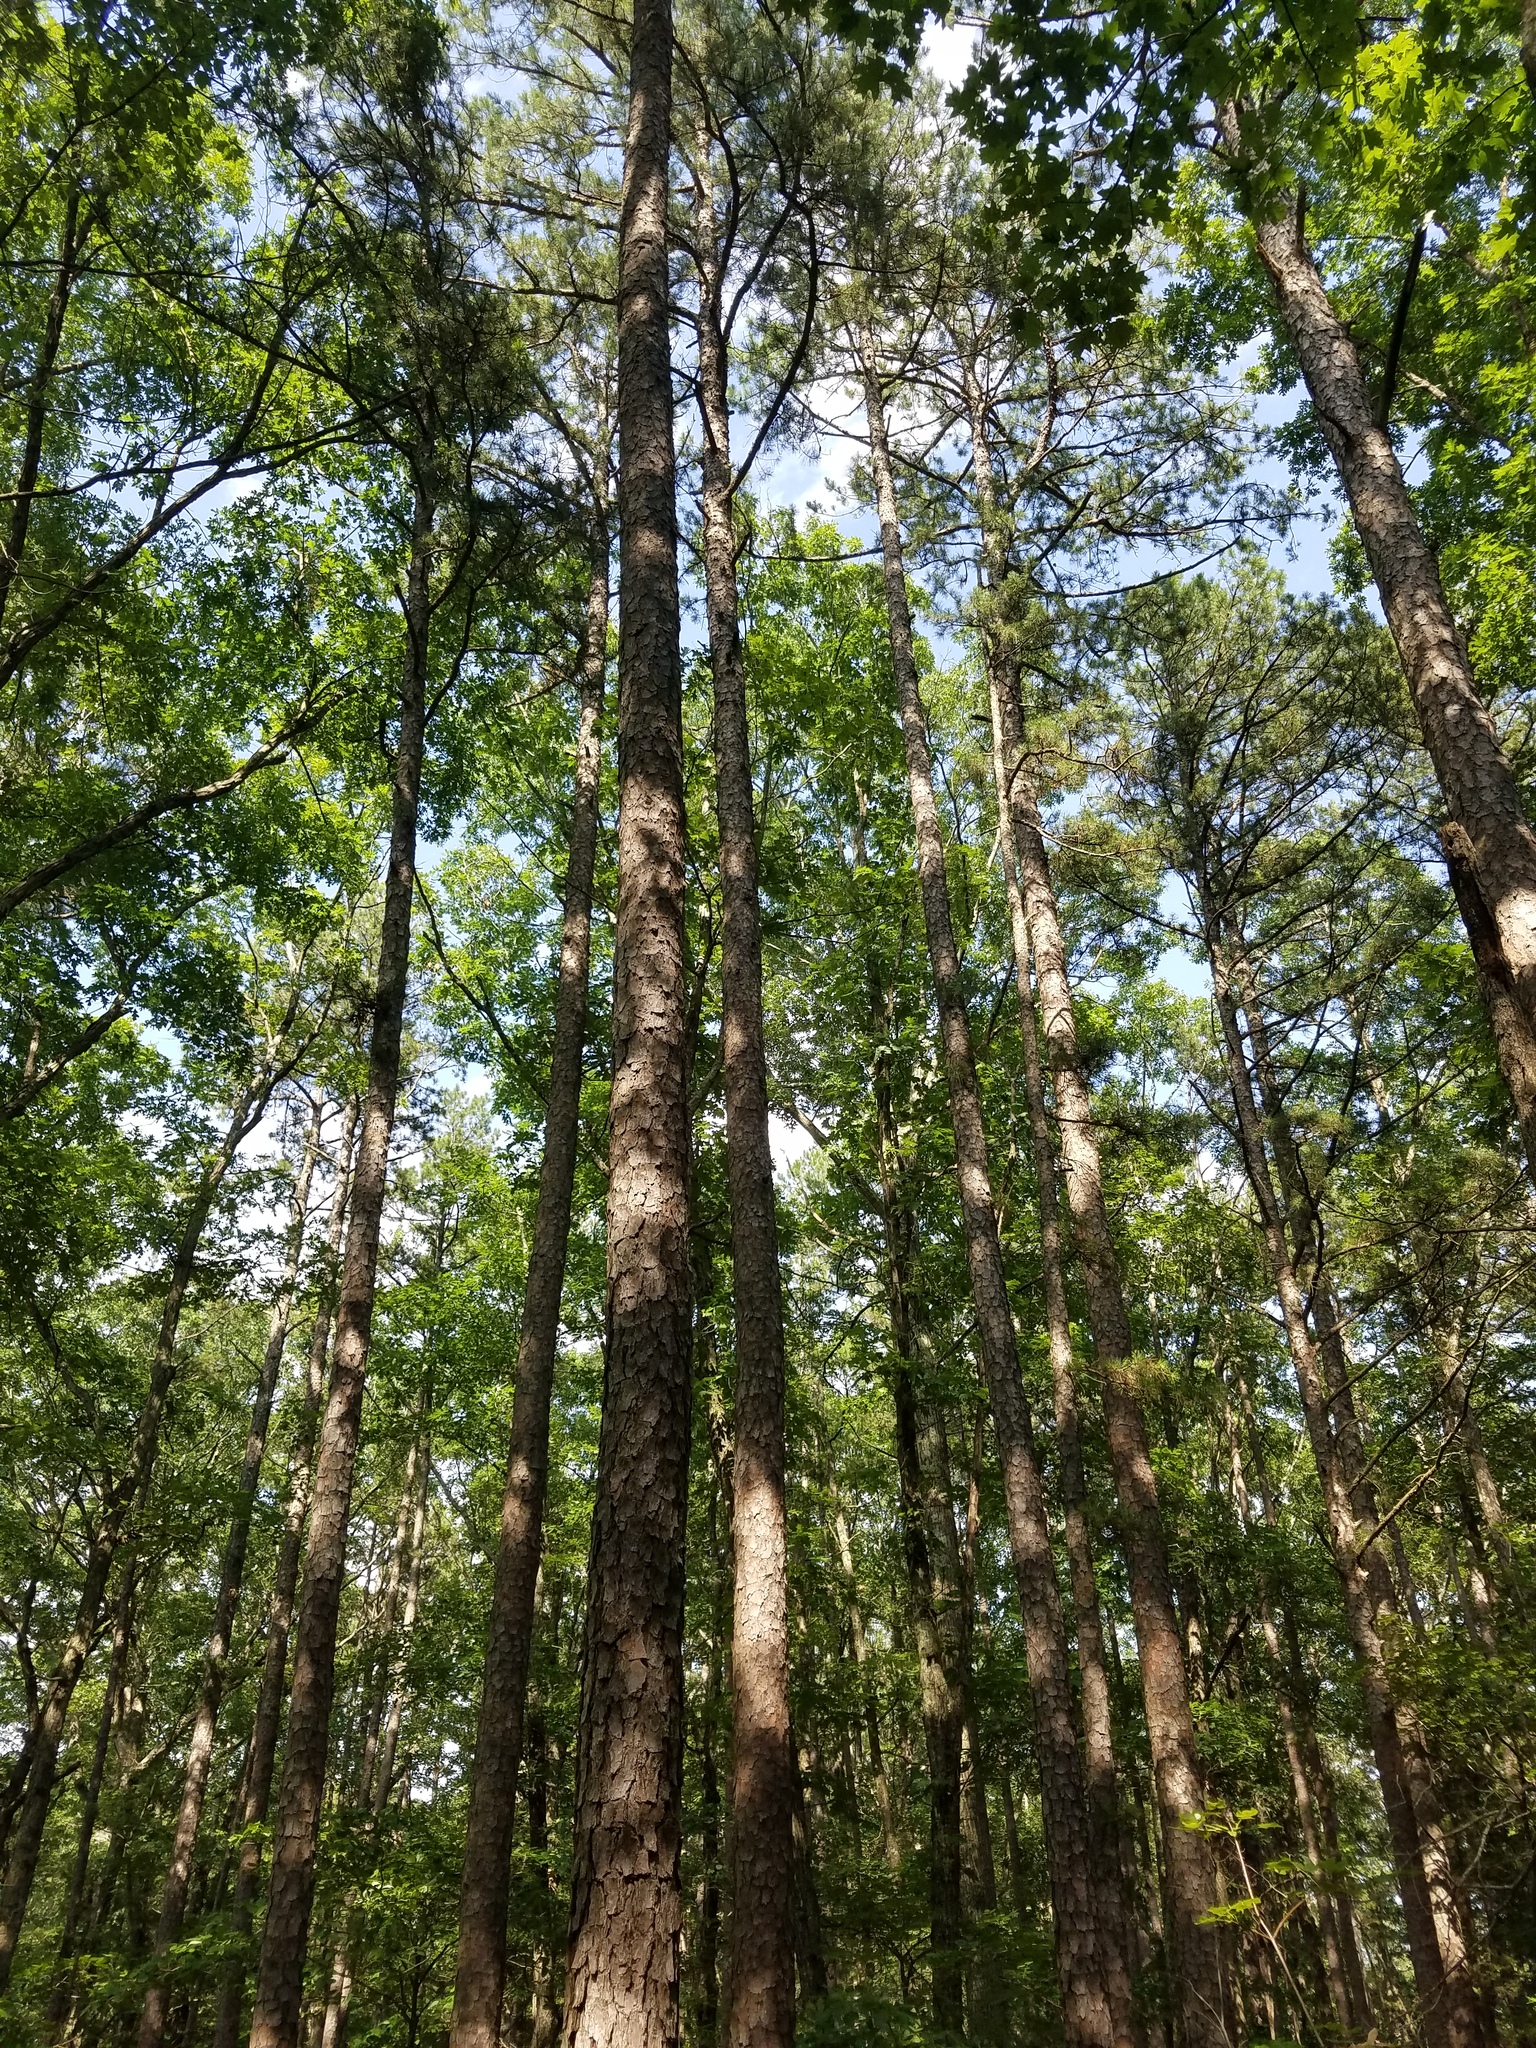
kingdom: Plantae
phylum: Tracheophyta
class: Pinopsida
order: Pinales
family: Pinaceae
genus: Pinus
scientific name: Pinus echinata
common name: Shortleaf pine
